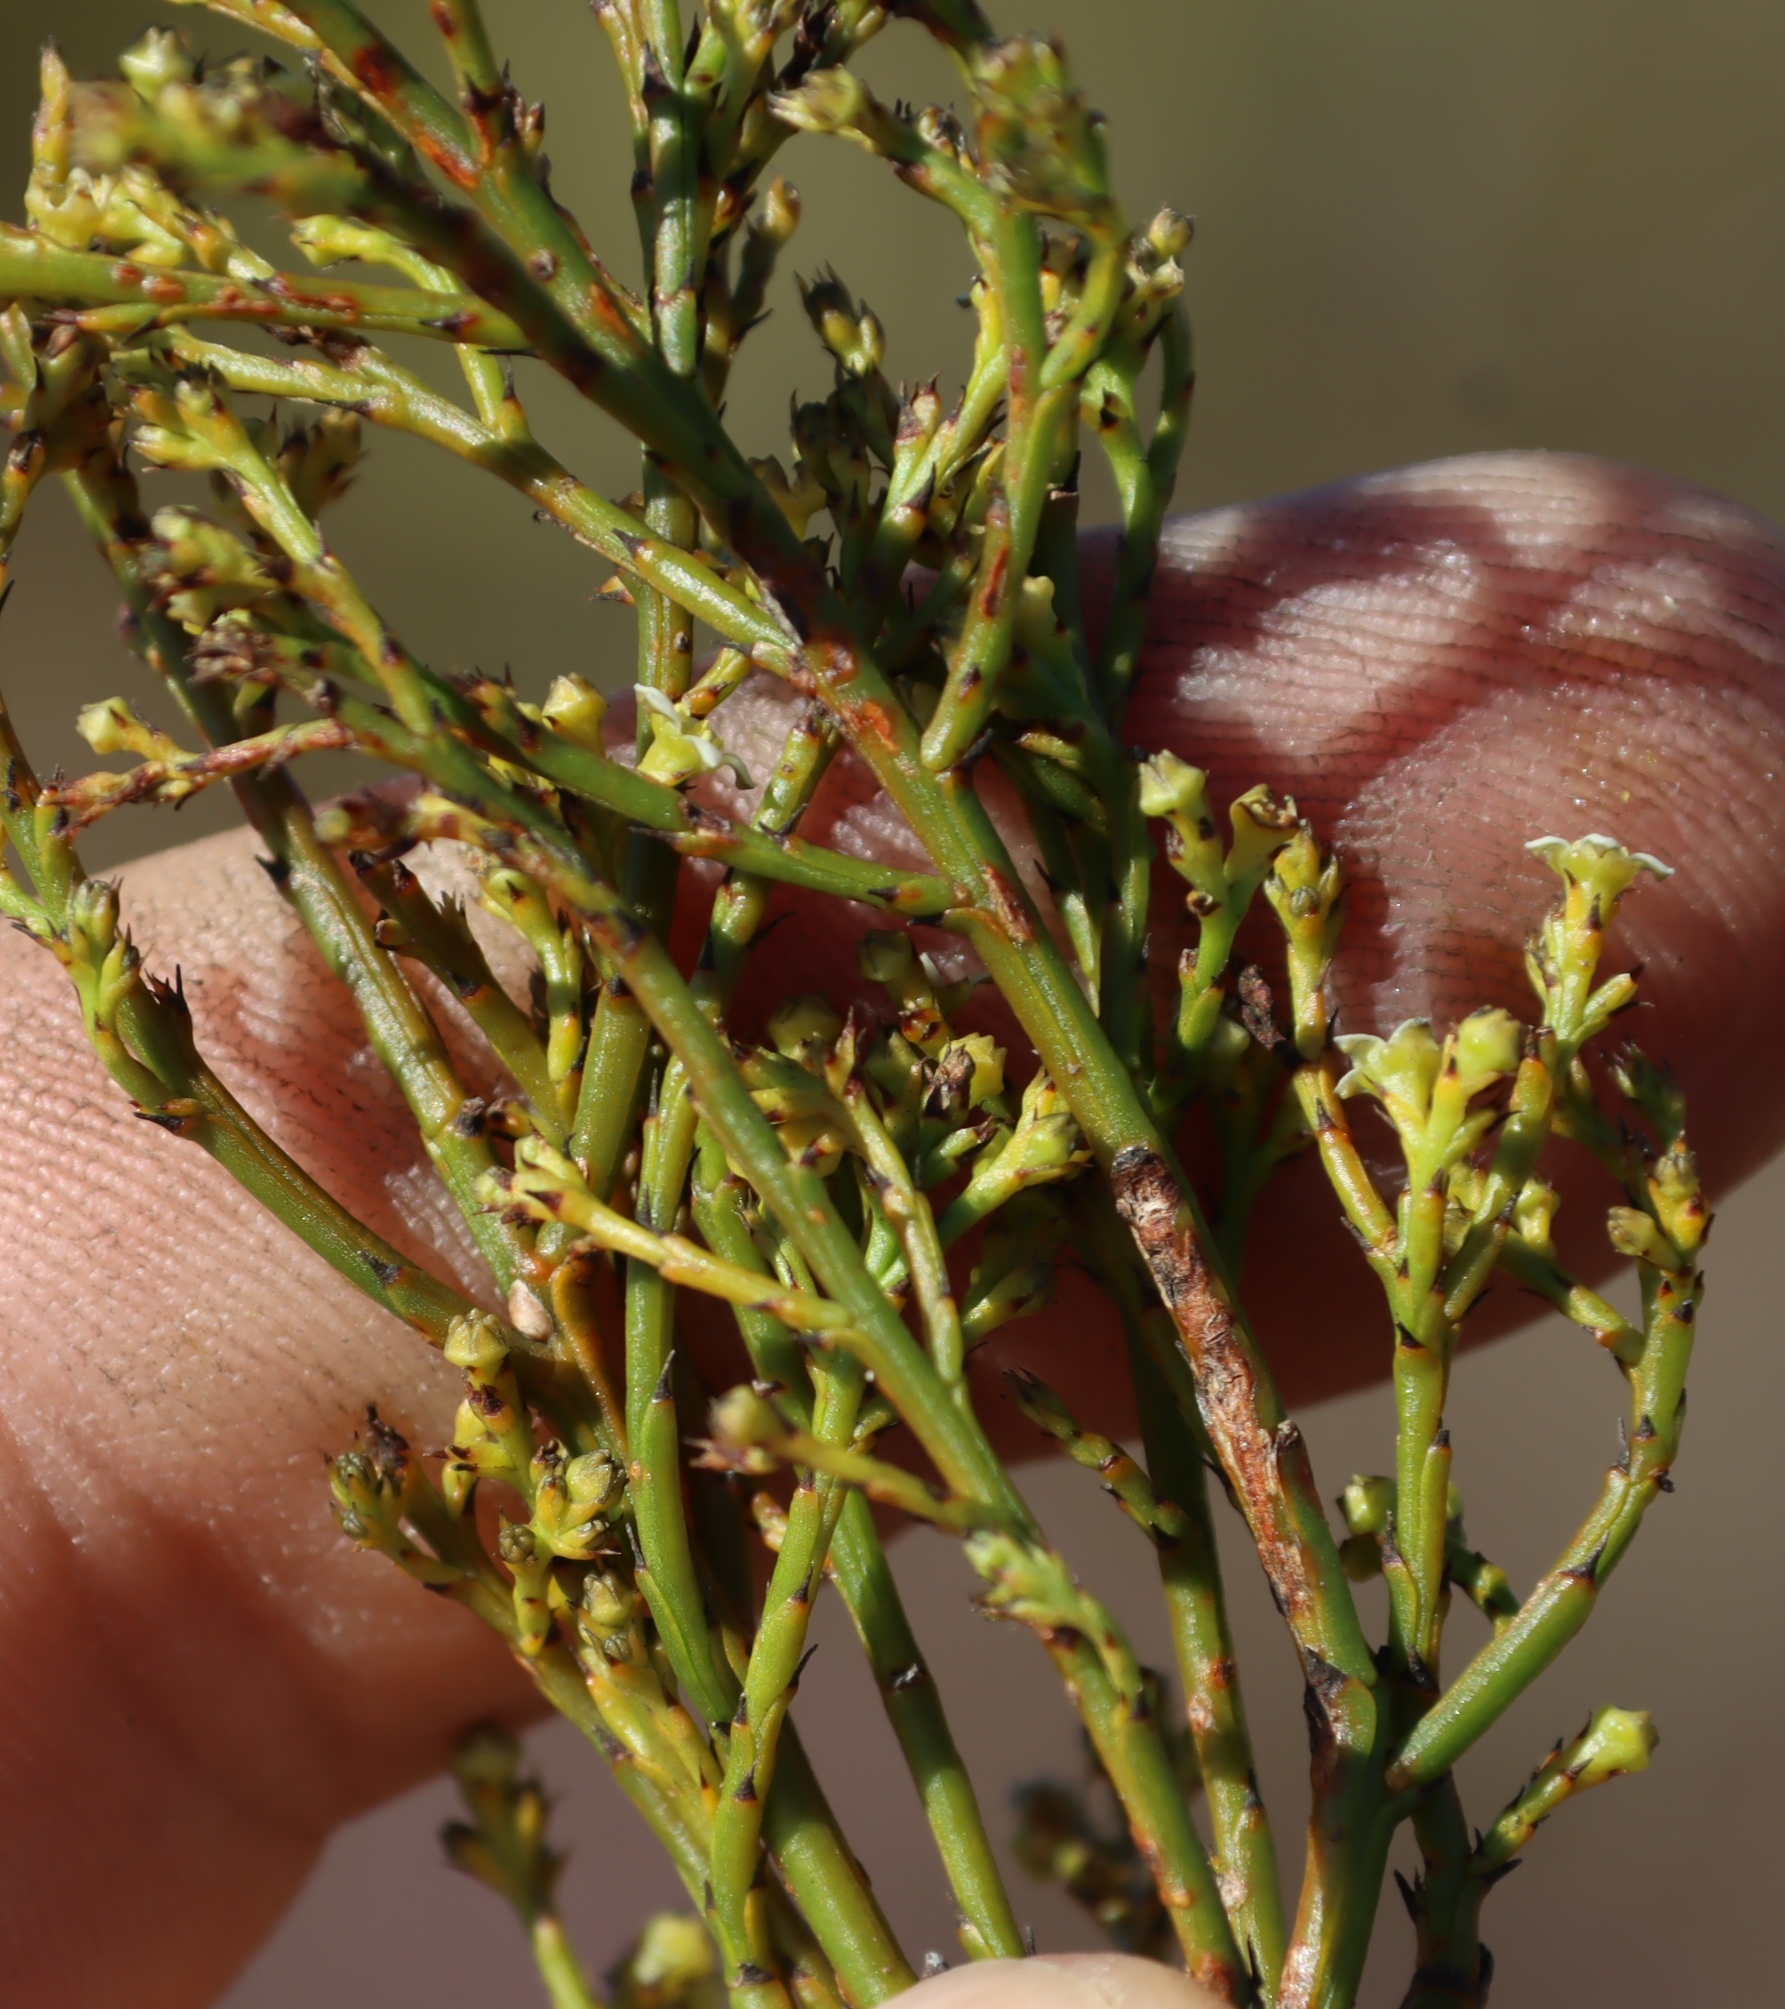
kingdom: Plantae
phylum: Tracheophyta
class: Magnoliopsida
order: Santalales
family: Thesiaceae
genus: Thesium
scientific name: Thesium nigromontanum
